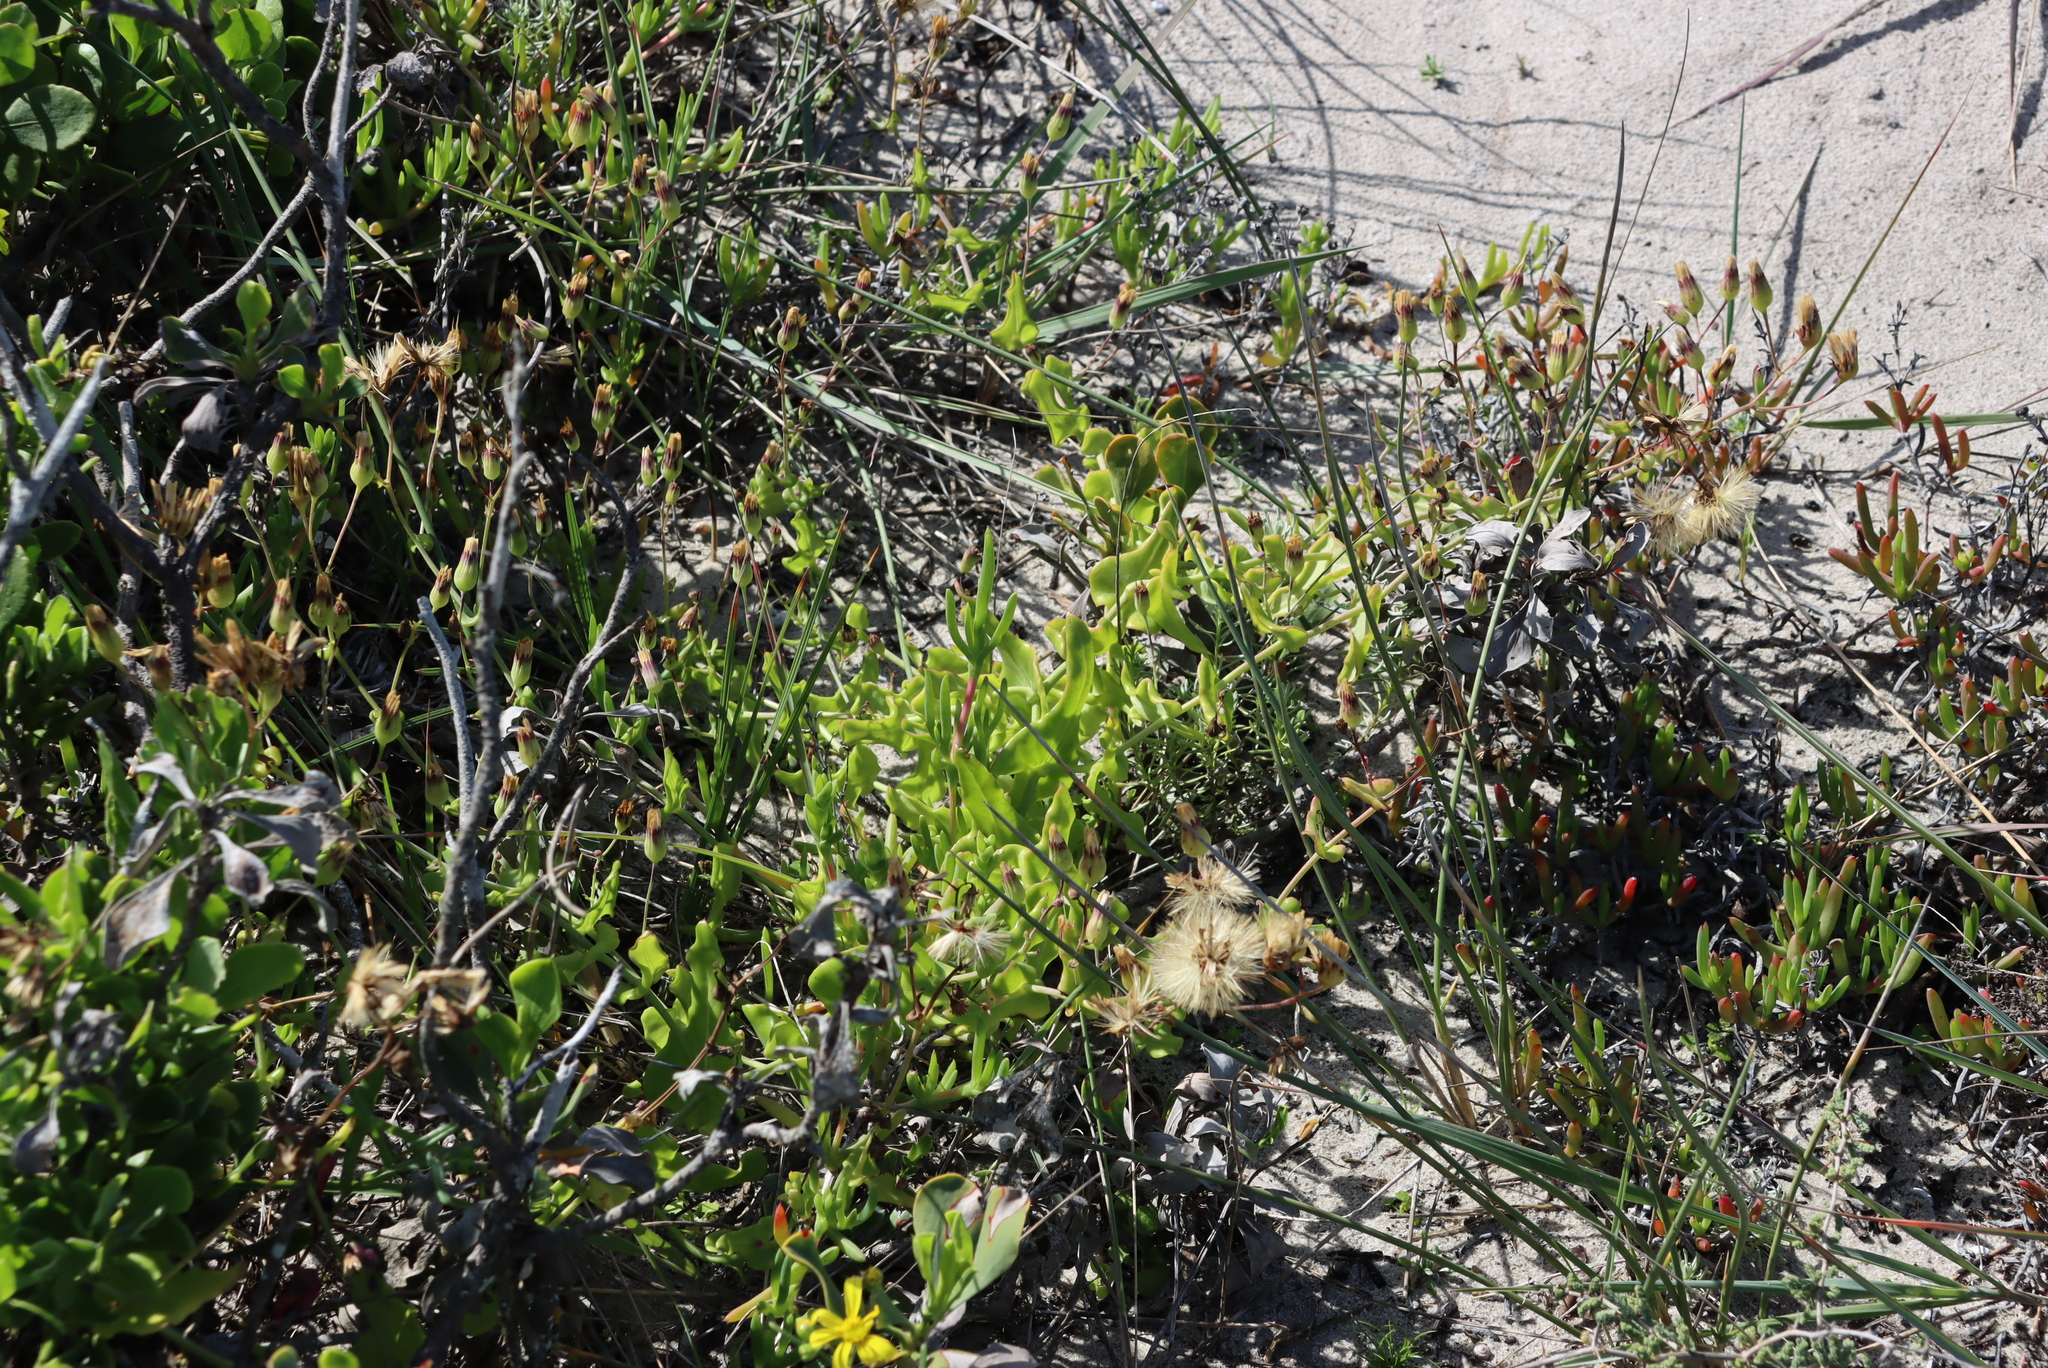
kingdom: Plantae
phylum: Tracheophyta
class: Magnoliopsida
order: Asterales
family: Asteraceae
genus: Othonna
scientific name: Othonna undulosa
